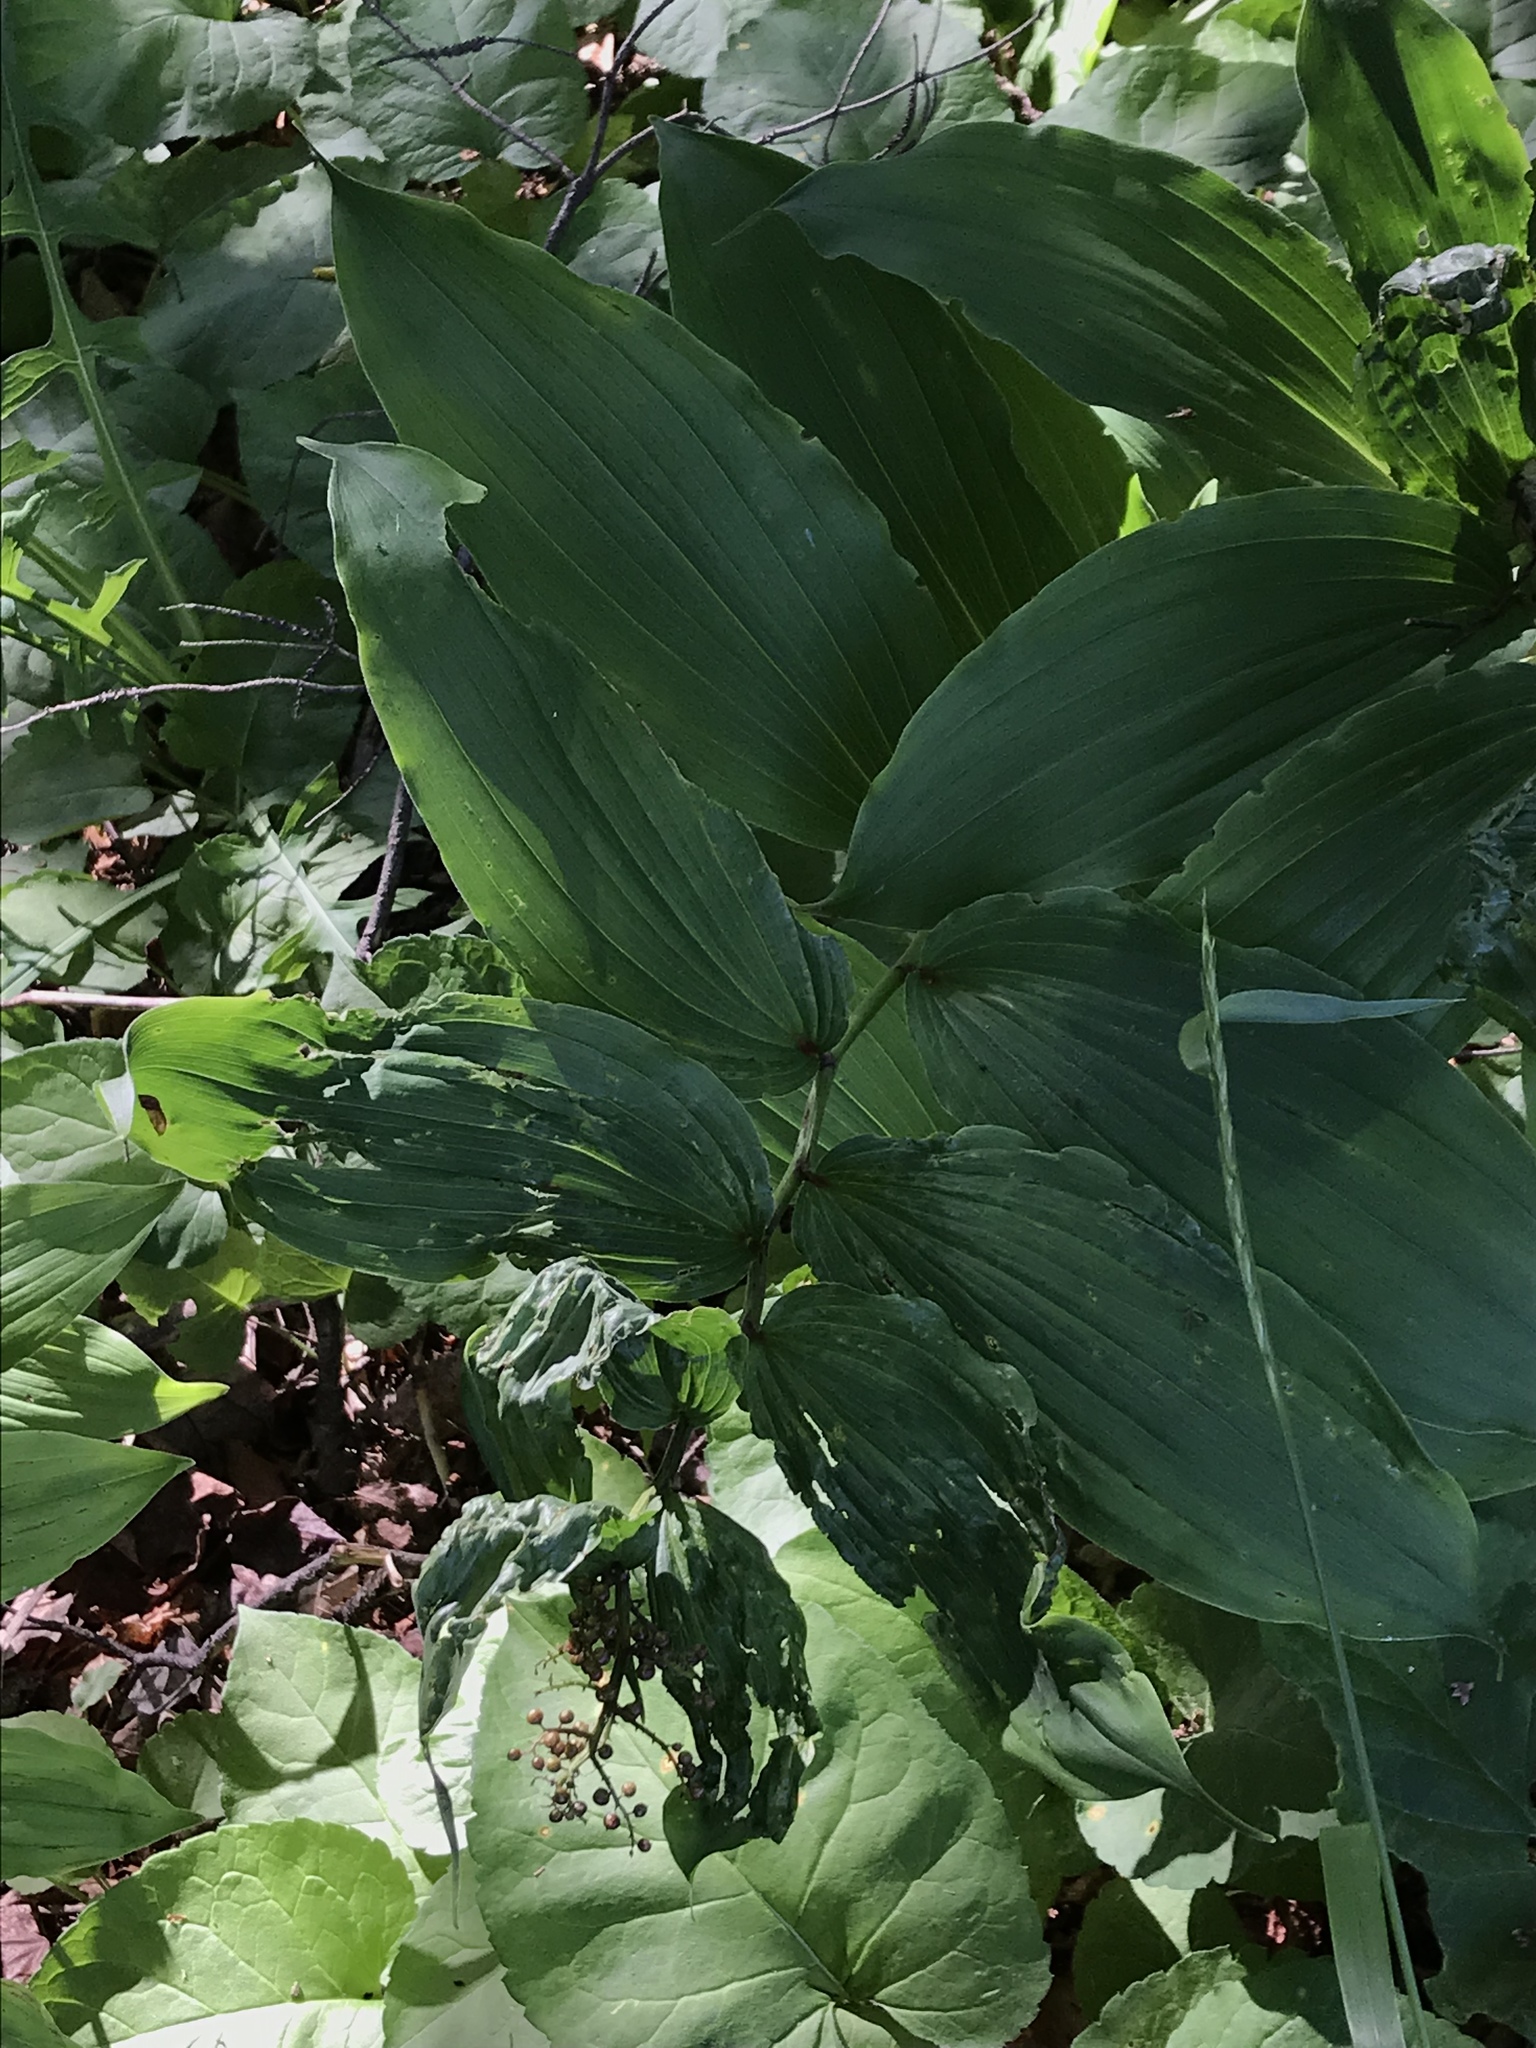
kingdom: Plantae
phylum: Tracheophyta
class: Liliopsida
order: Asparagales
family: Asparagaceae
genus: Maianthemum
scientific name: Maianthemum racemosum
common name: False spikenard
